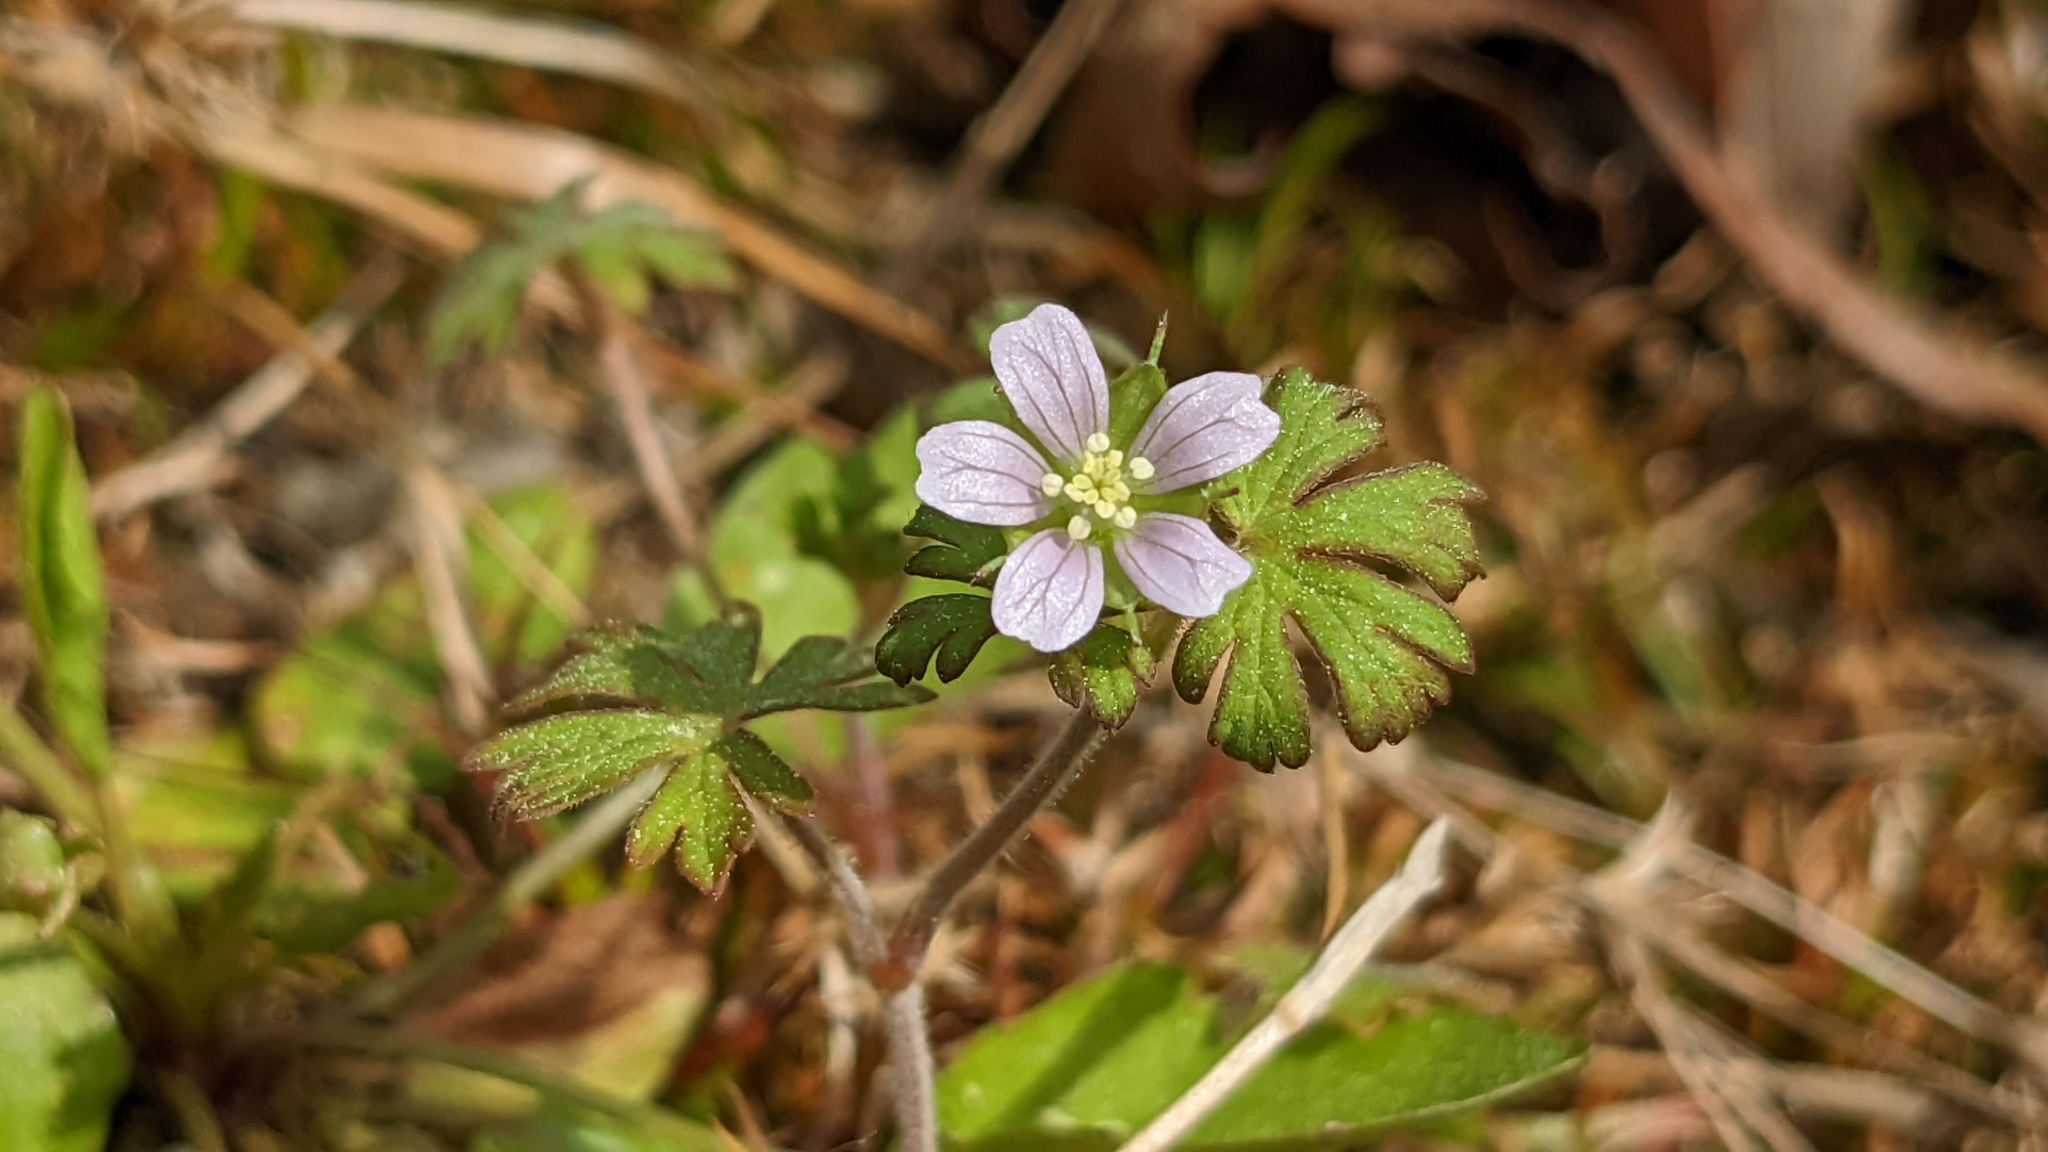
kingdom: Plantae
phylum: Tracheophyta
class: Magnoliopsida
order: Geraniales
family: Geraniaceae
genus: Geranium
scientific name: Geranium carolinianum
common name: Carolina crane's-bill
